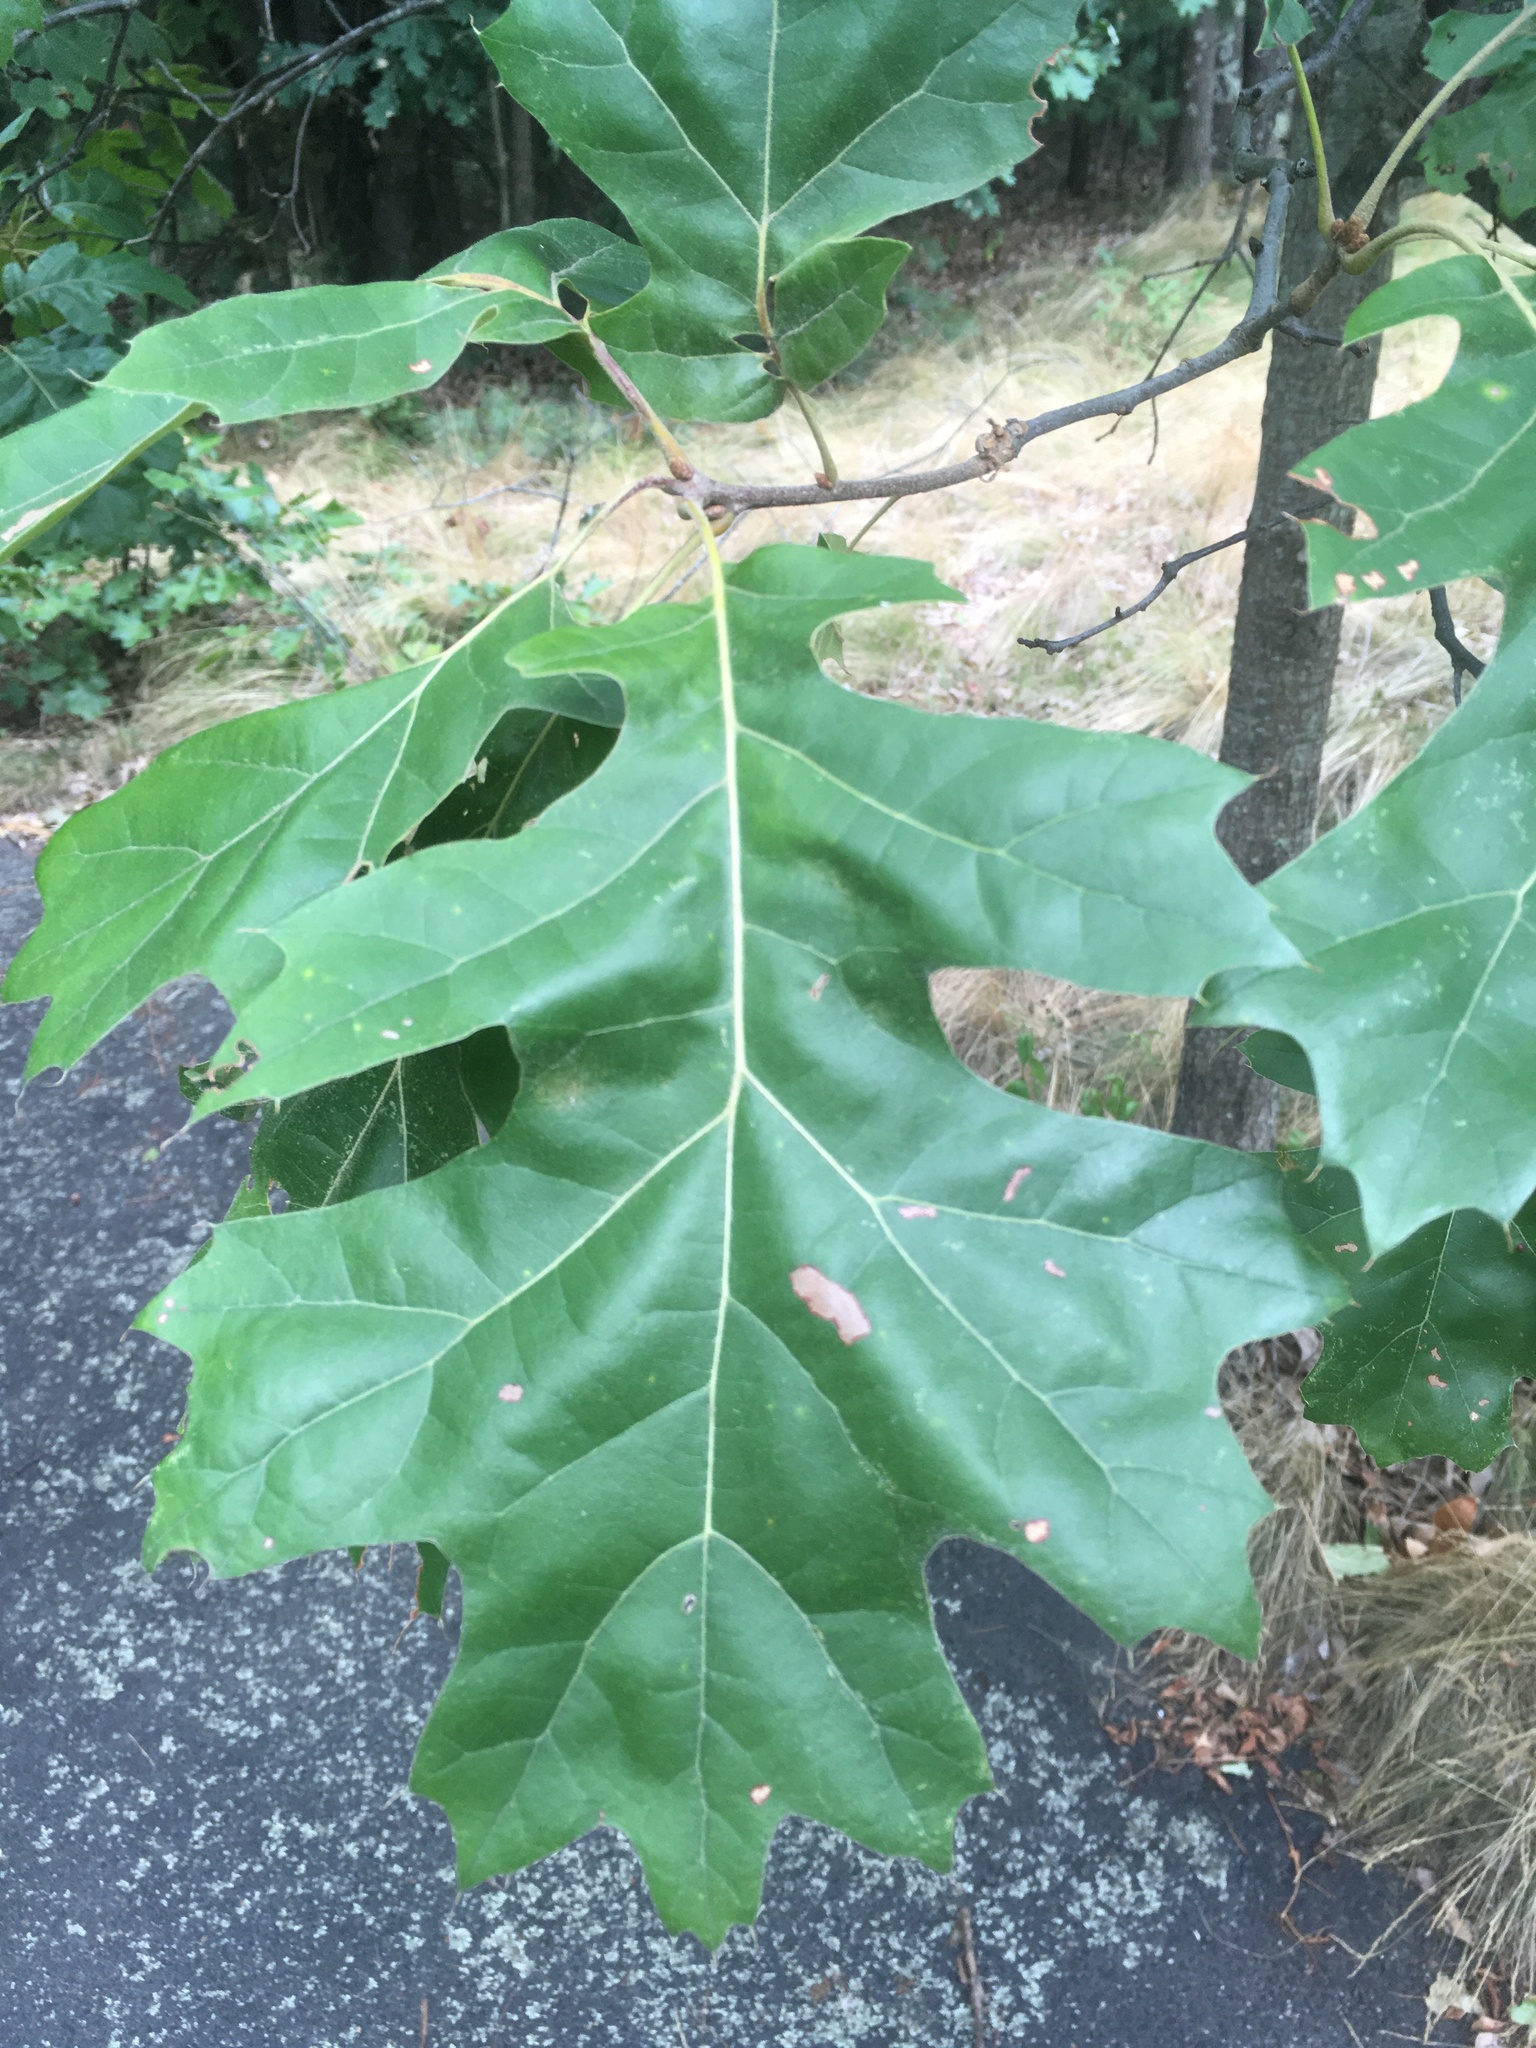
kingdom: Plantae
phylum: Tracheophyta
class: Magnoliopsida
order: Fagales
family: Fagaceae
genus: Quercus
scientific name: Quercus velutina
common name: Black oak
